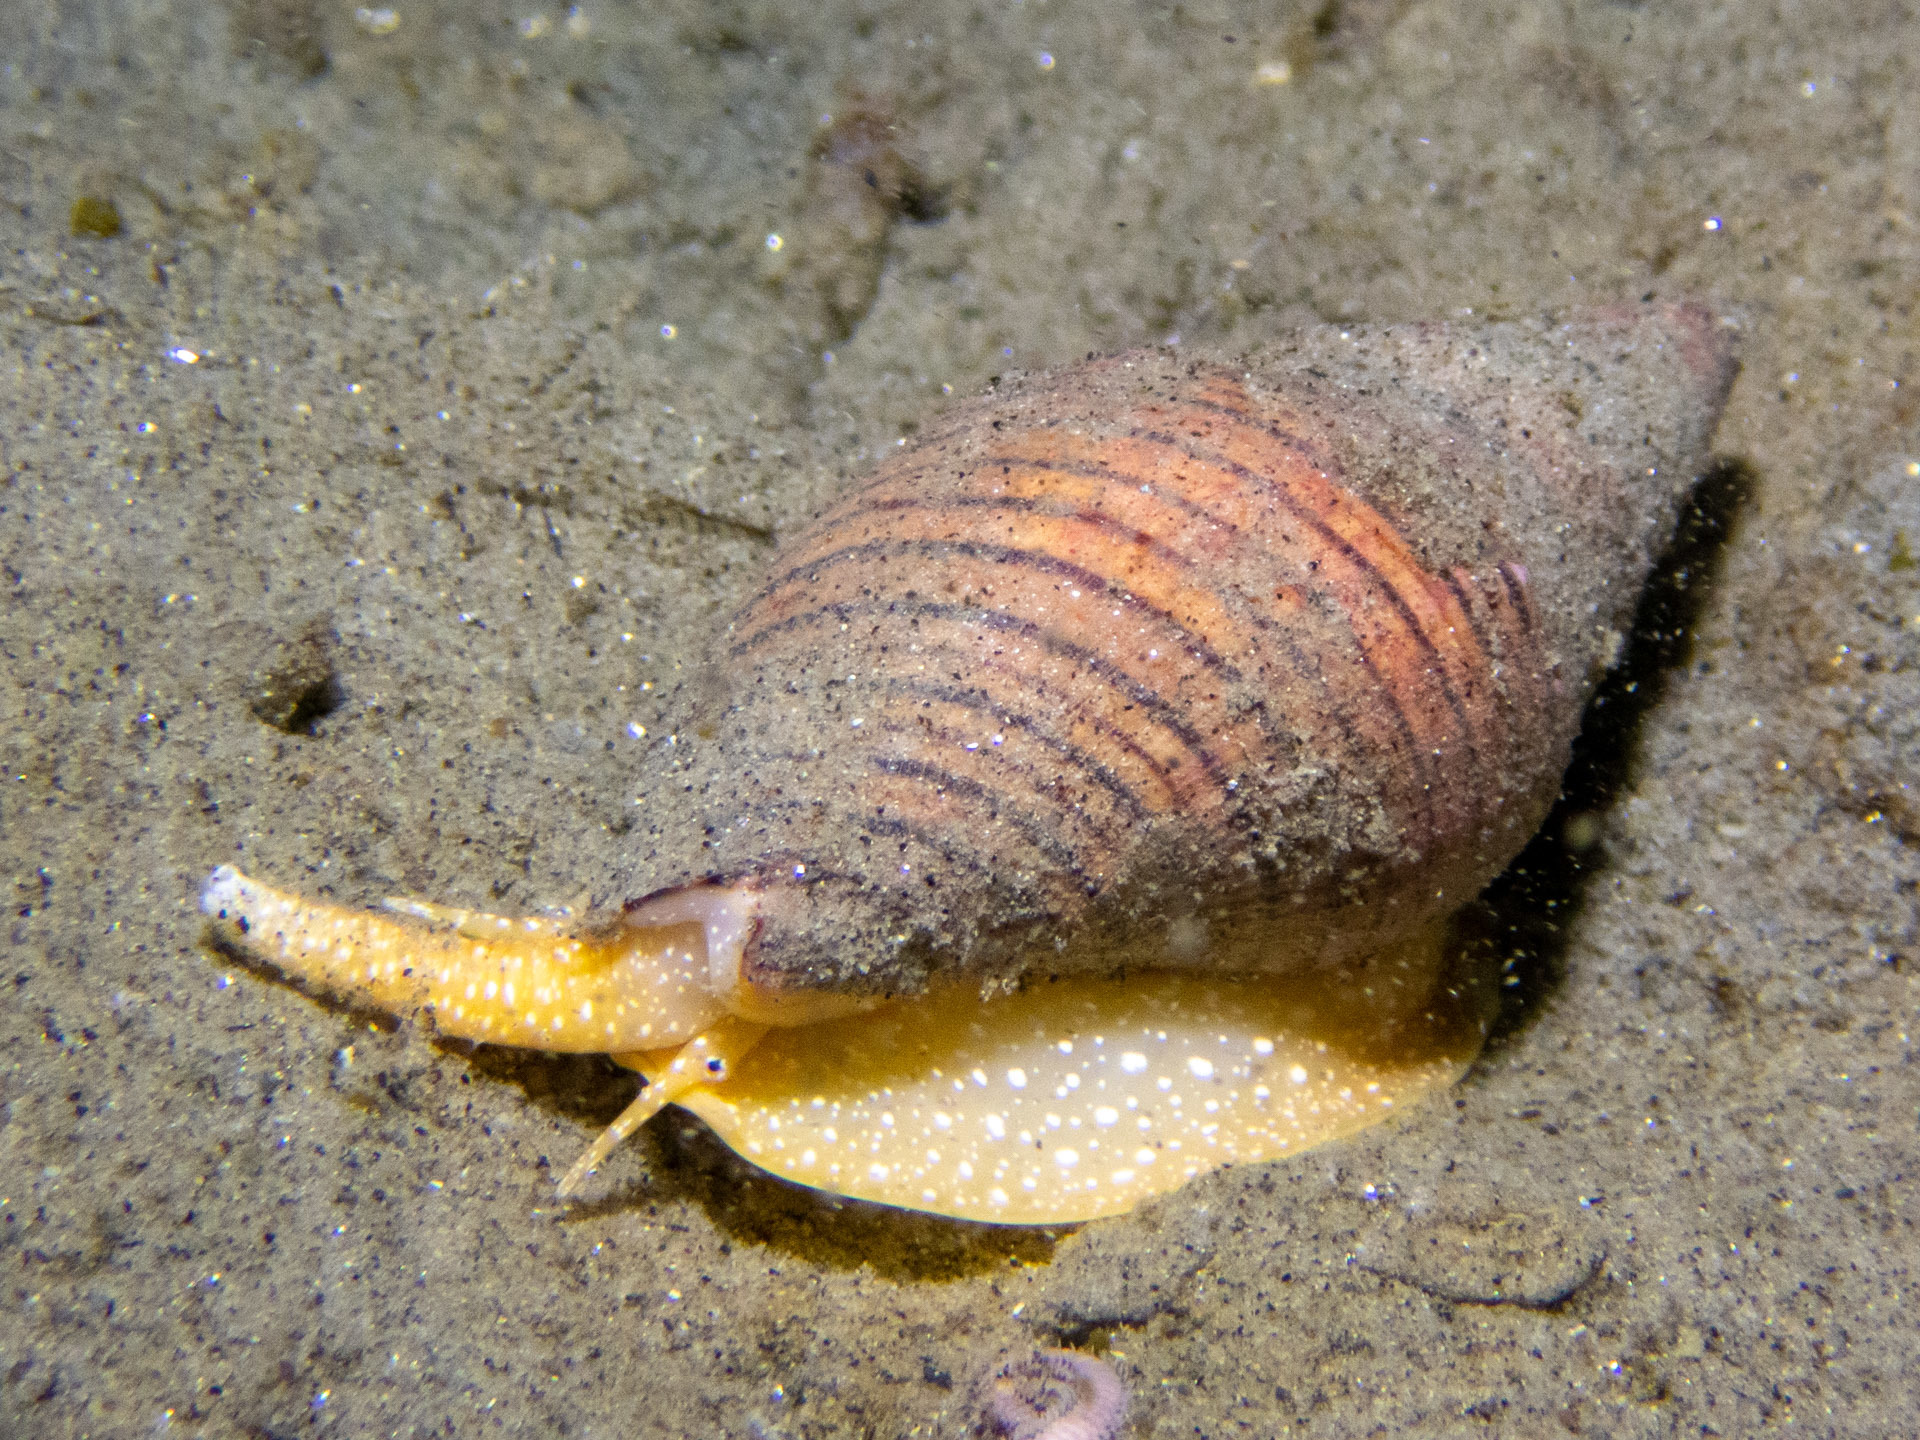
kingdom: Animalia
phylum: Mollusca
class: Gastropoda
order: Neogastropoda
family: Pseudomelatomidae
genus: Megasurcula
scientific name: Megasurcula carpenteriana
